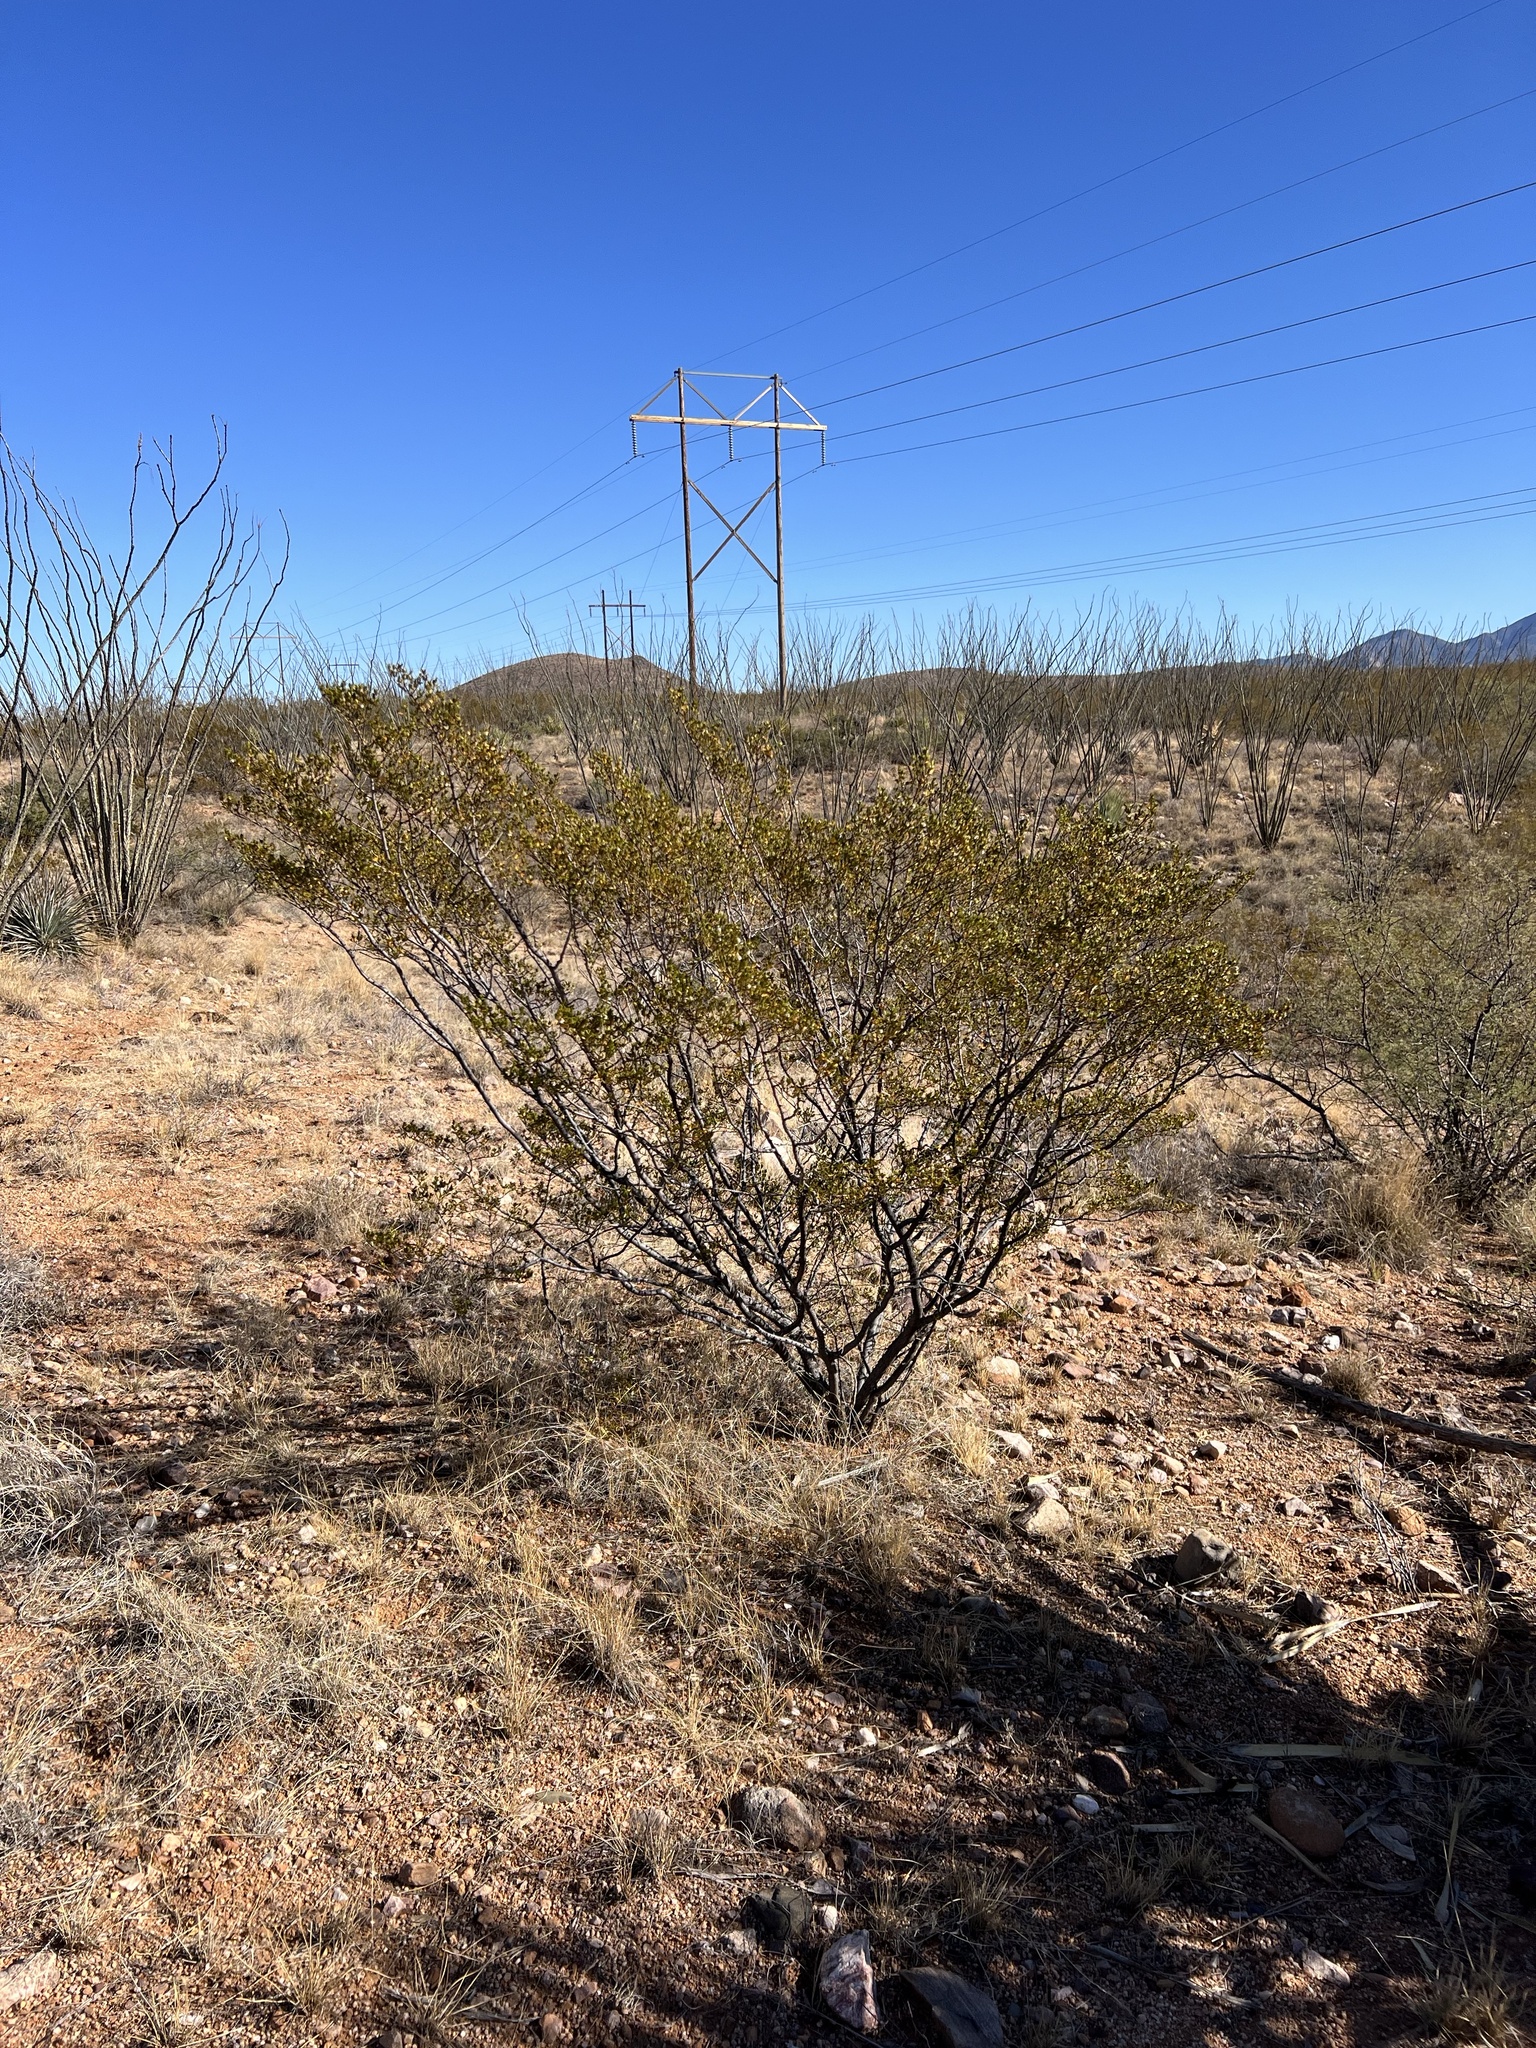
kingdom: Plantae
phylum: Tracheophyta
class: Magnoliopsida
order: Zygophyllales
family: Zygophyllaceae
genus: Larrea
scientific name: Larrea tridentata
